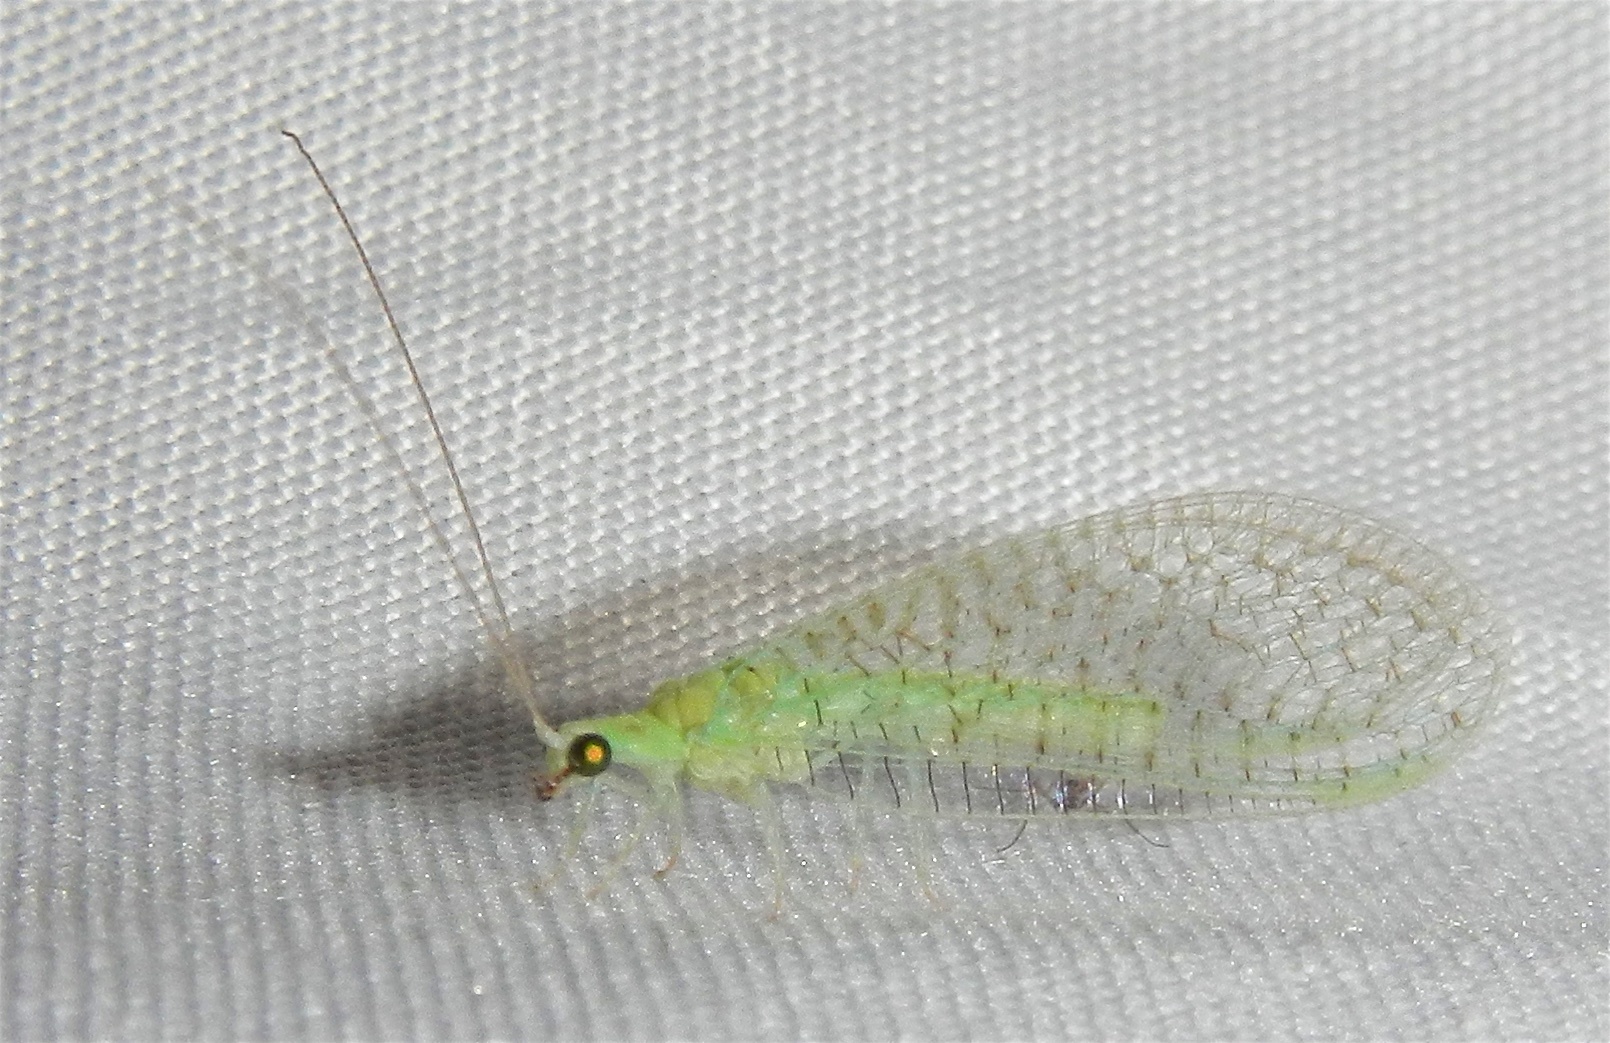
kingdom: Animalia
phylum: Arthropoda
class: Insecta
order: Neuroptera
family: Chrysopidae
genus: Pseudomallada
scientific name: Pseudomallada perfectus
